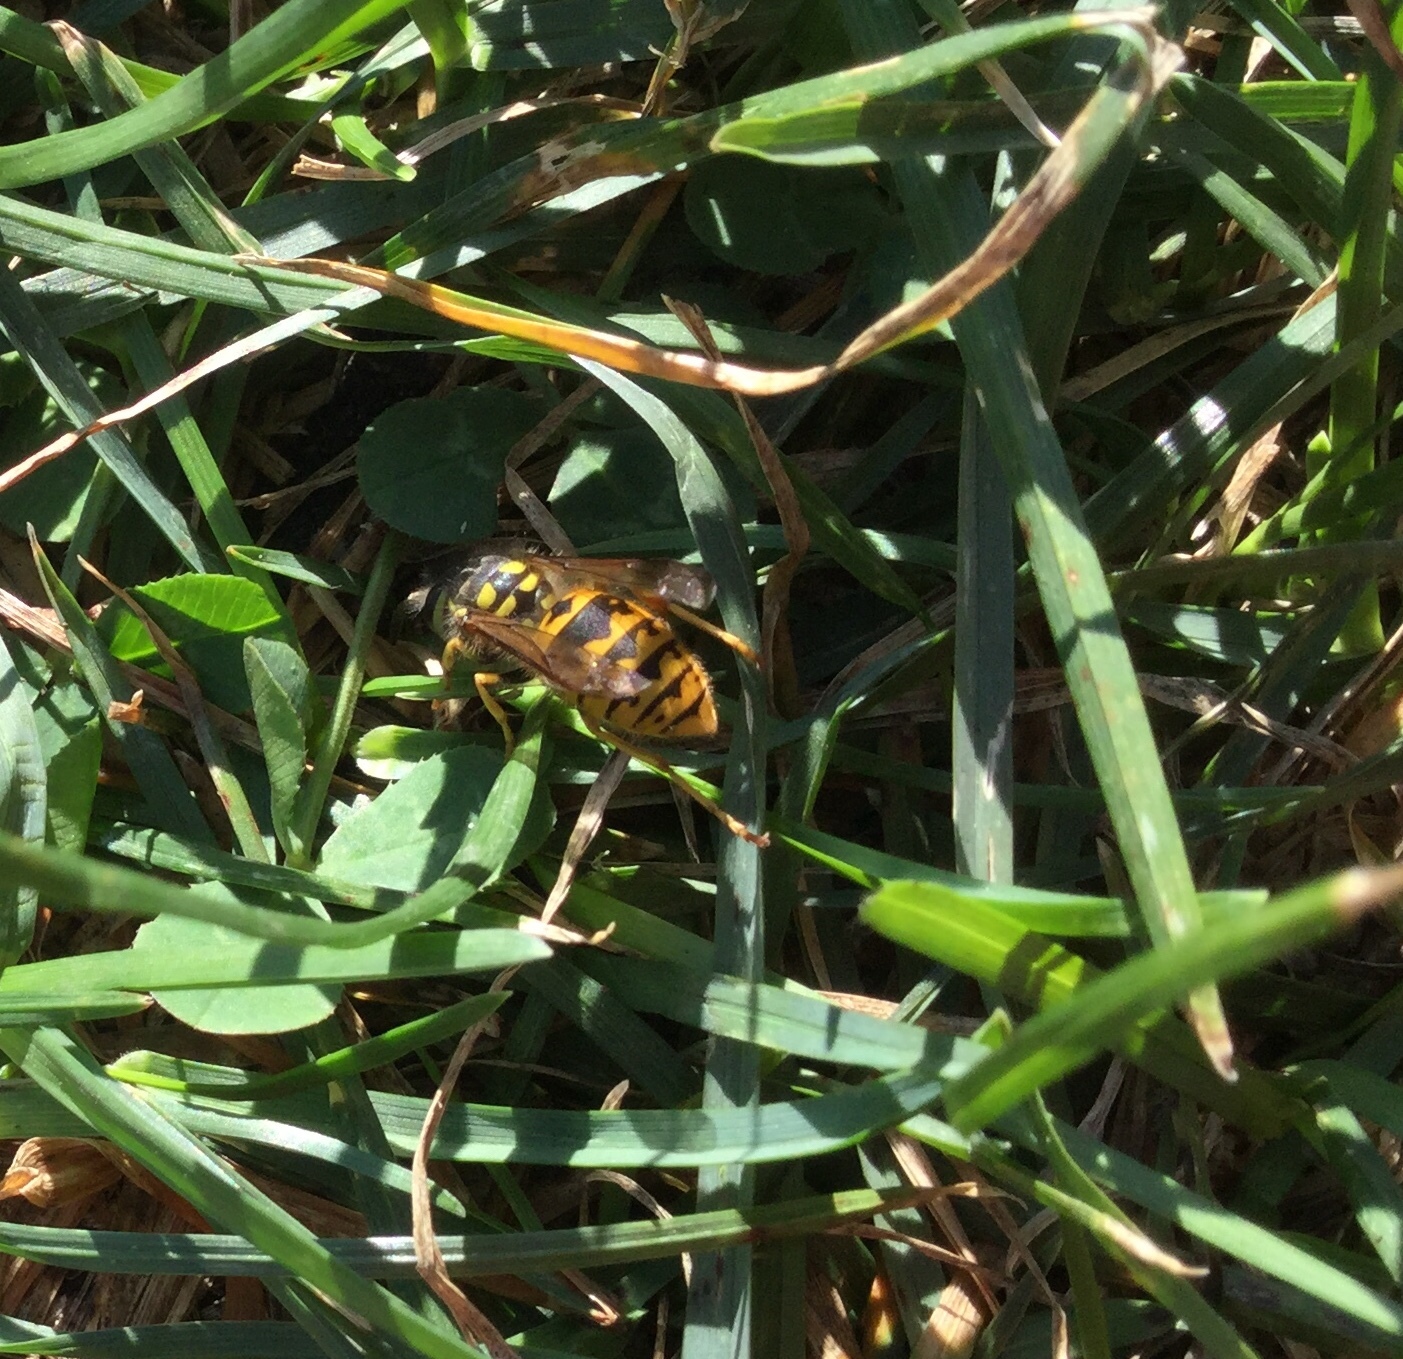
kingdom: Animalia
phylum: Arthropoda
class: Insecta
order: Hymenoptera
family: Vespidae
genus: Vespula
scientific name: Vespula germanica
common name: German wasp
